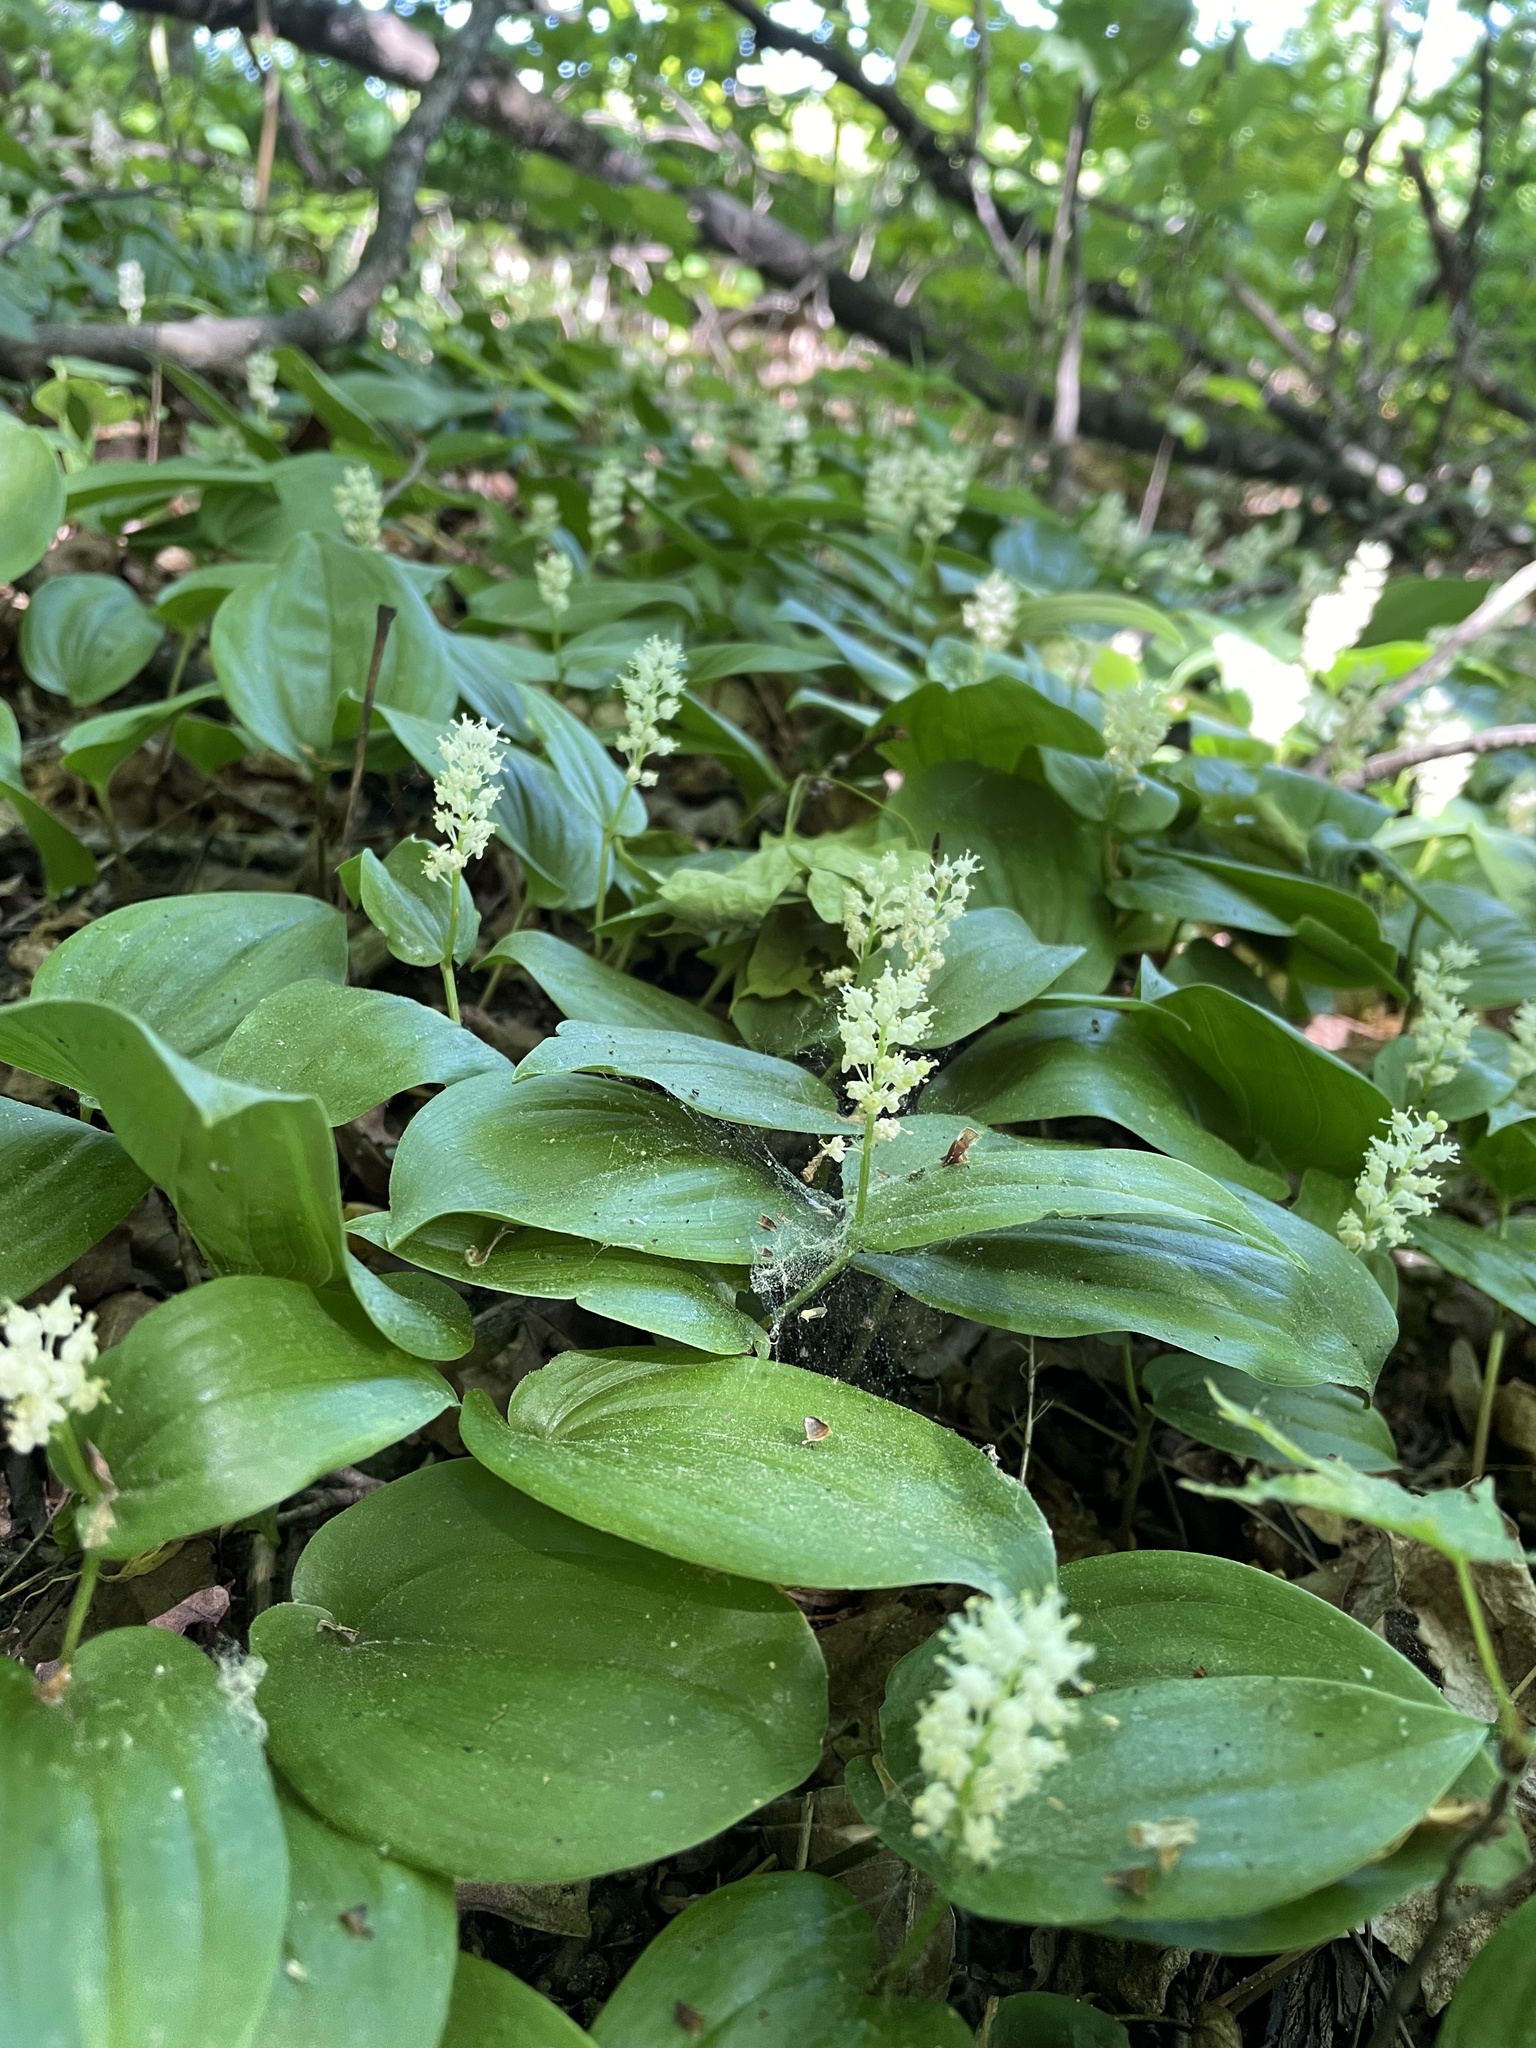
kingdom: Plantae
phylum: Tracheophyta
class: Liliopsida
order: Asparagales
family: Asparagaceae
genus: Maianthemum
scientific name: Maianthemum canadense
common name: False lily-of-the-valley
